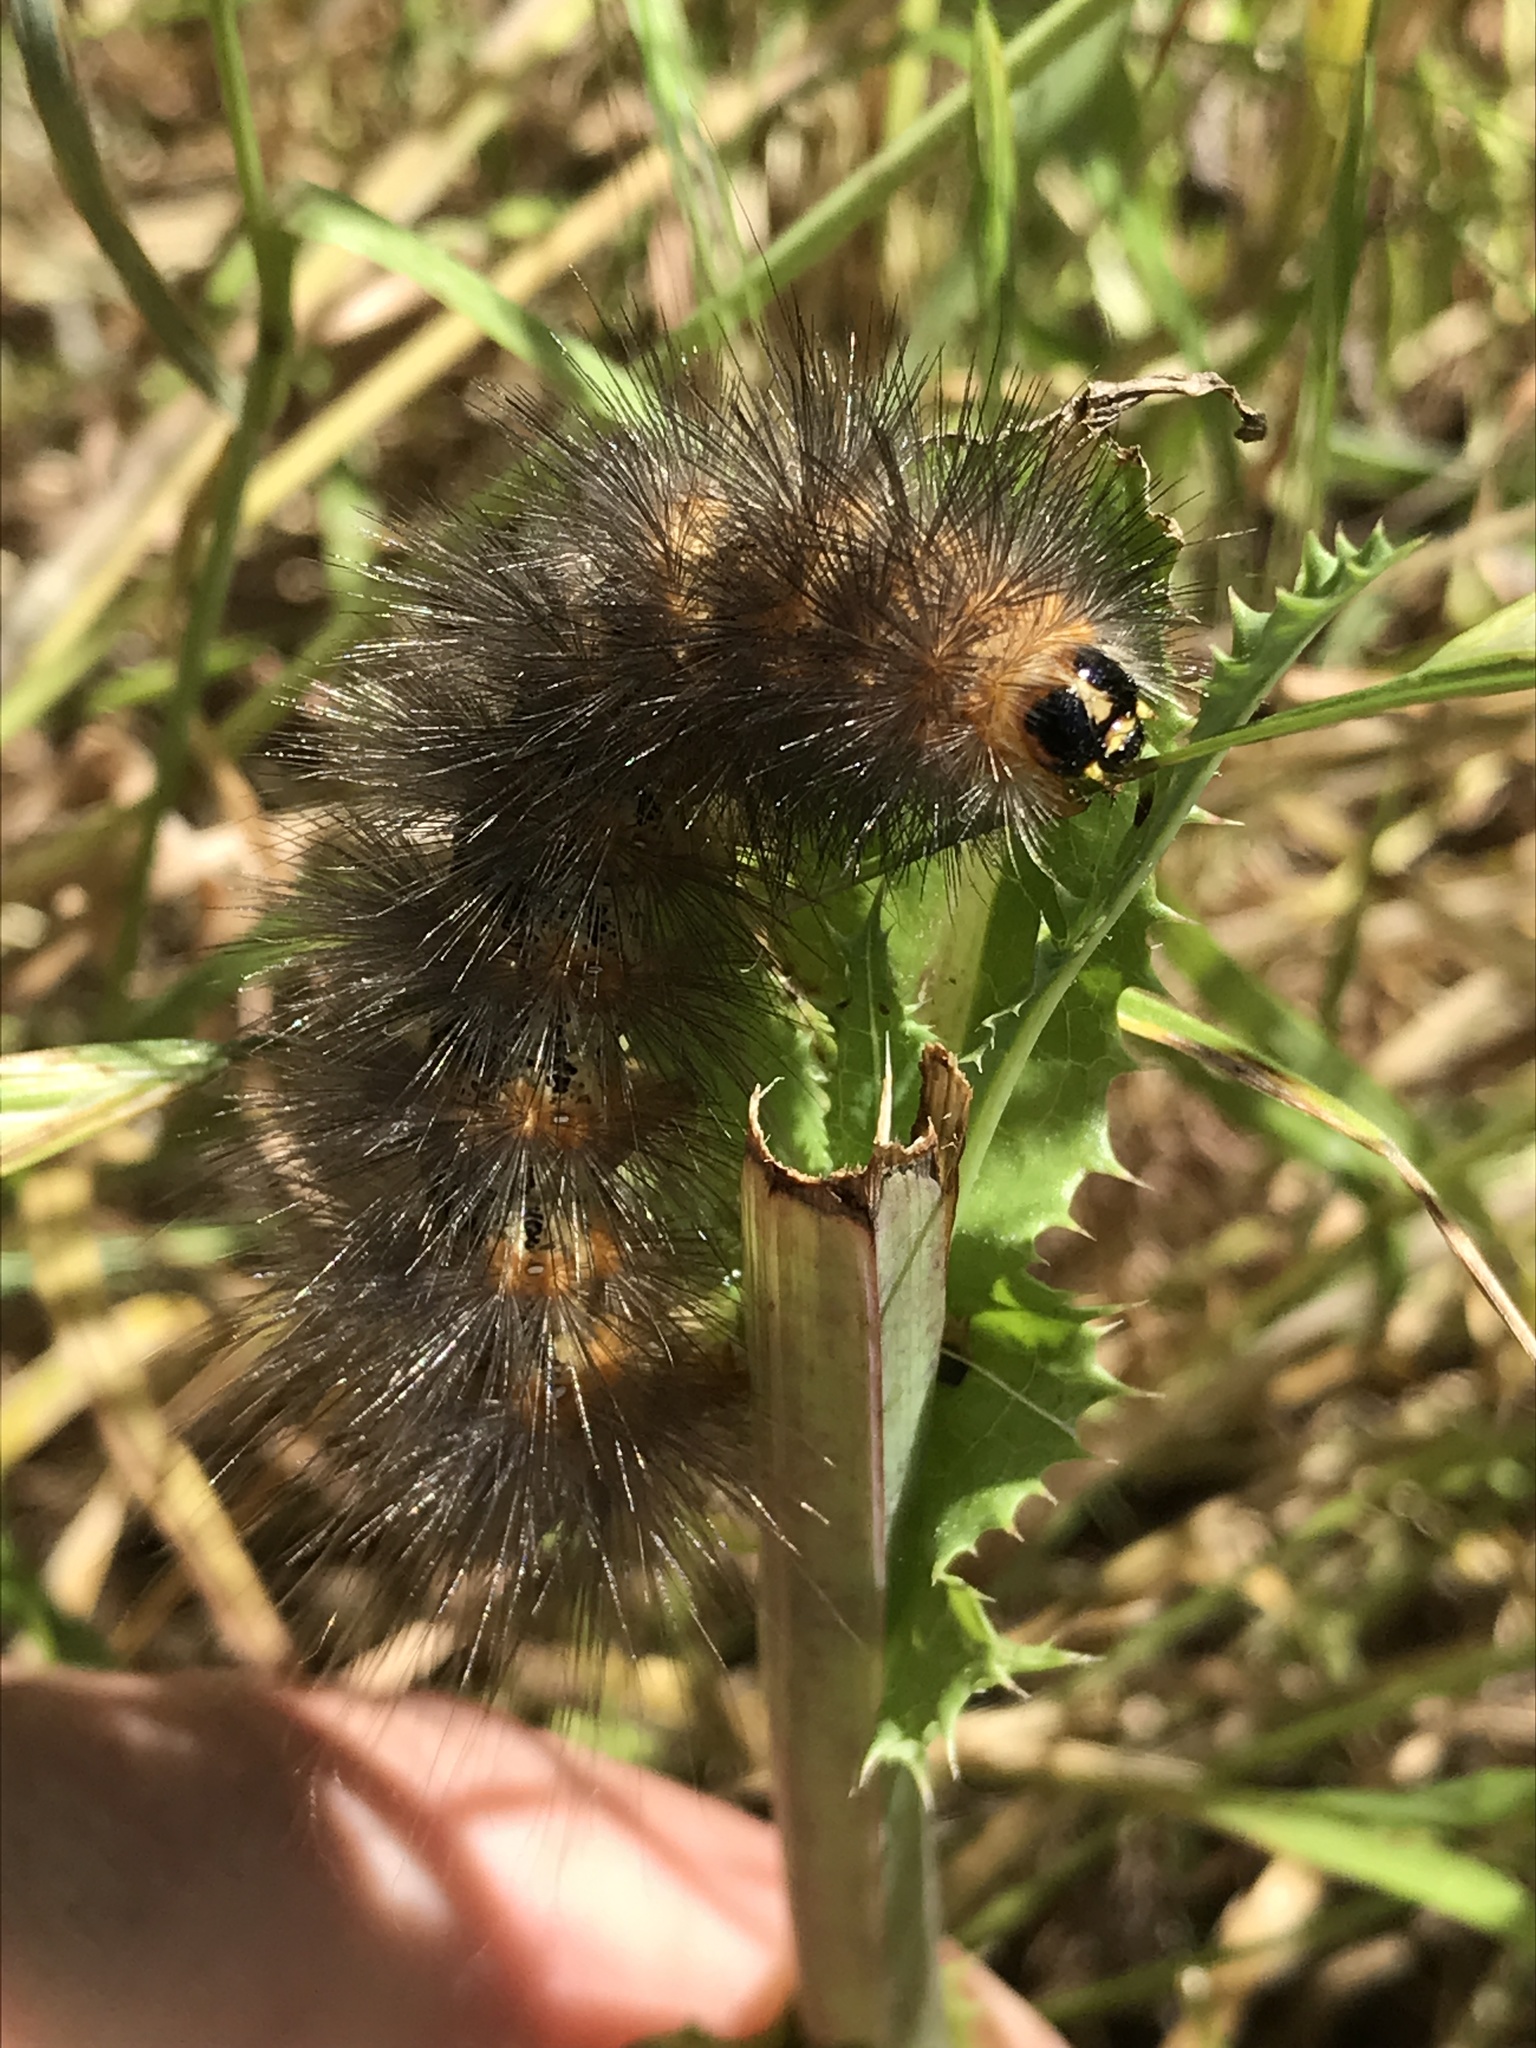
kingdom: Animalia
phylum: Arthropoda
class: Insecta
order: Lepidoptera
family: Erebidae
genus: Estigmene
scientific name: Estigmene acrea
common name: Salt marsh moth
